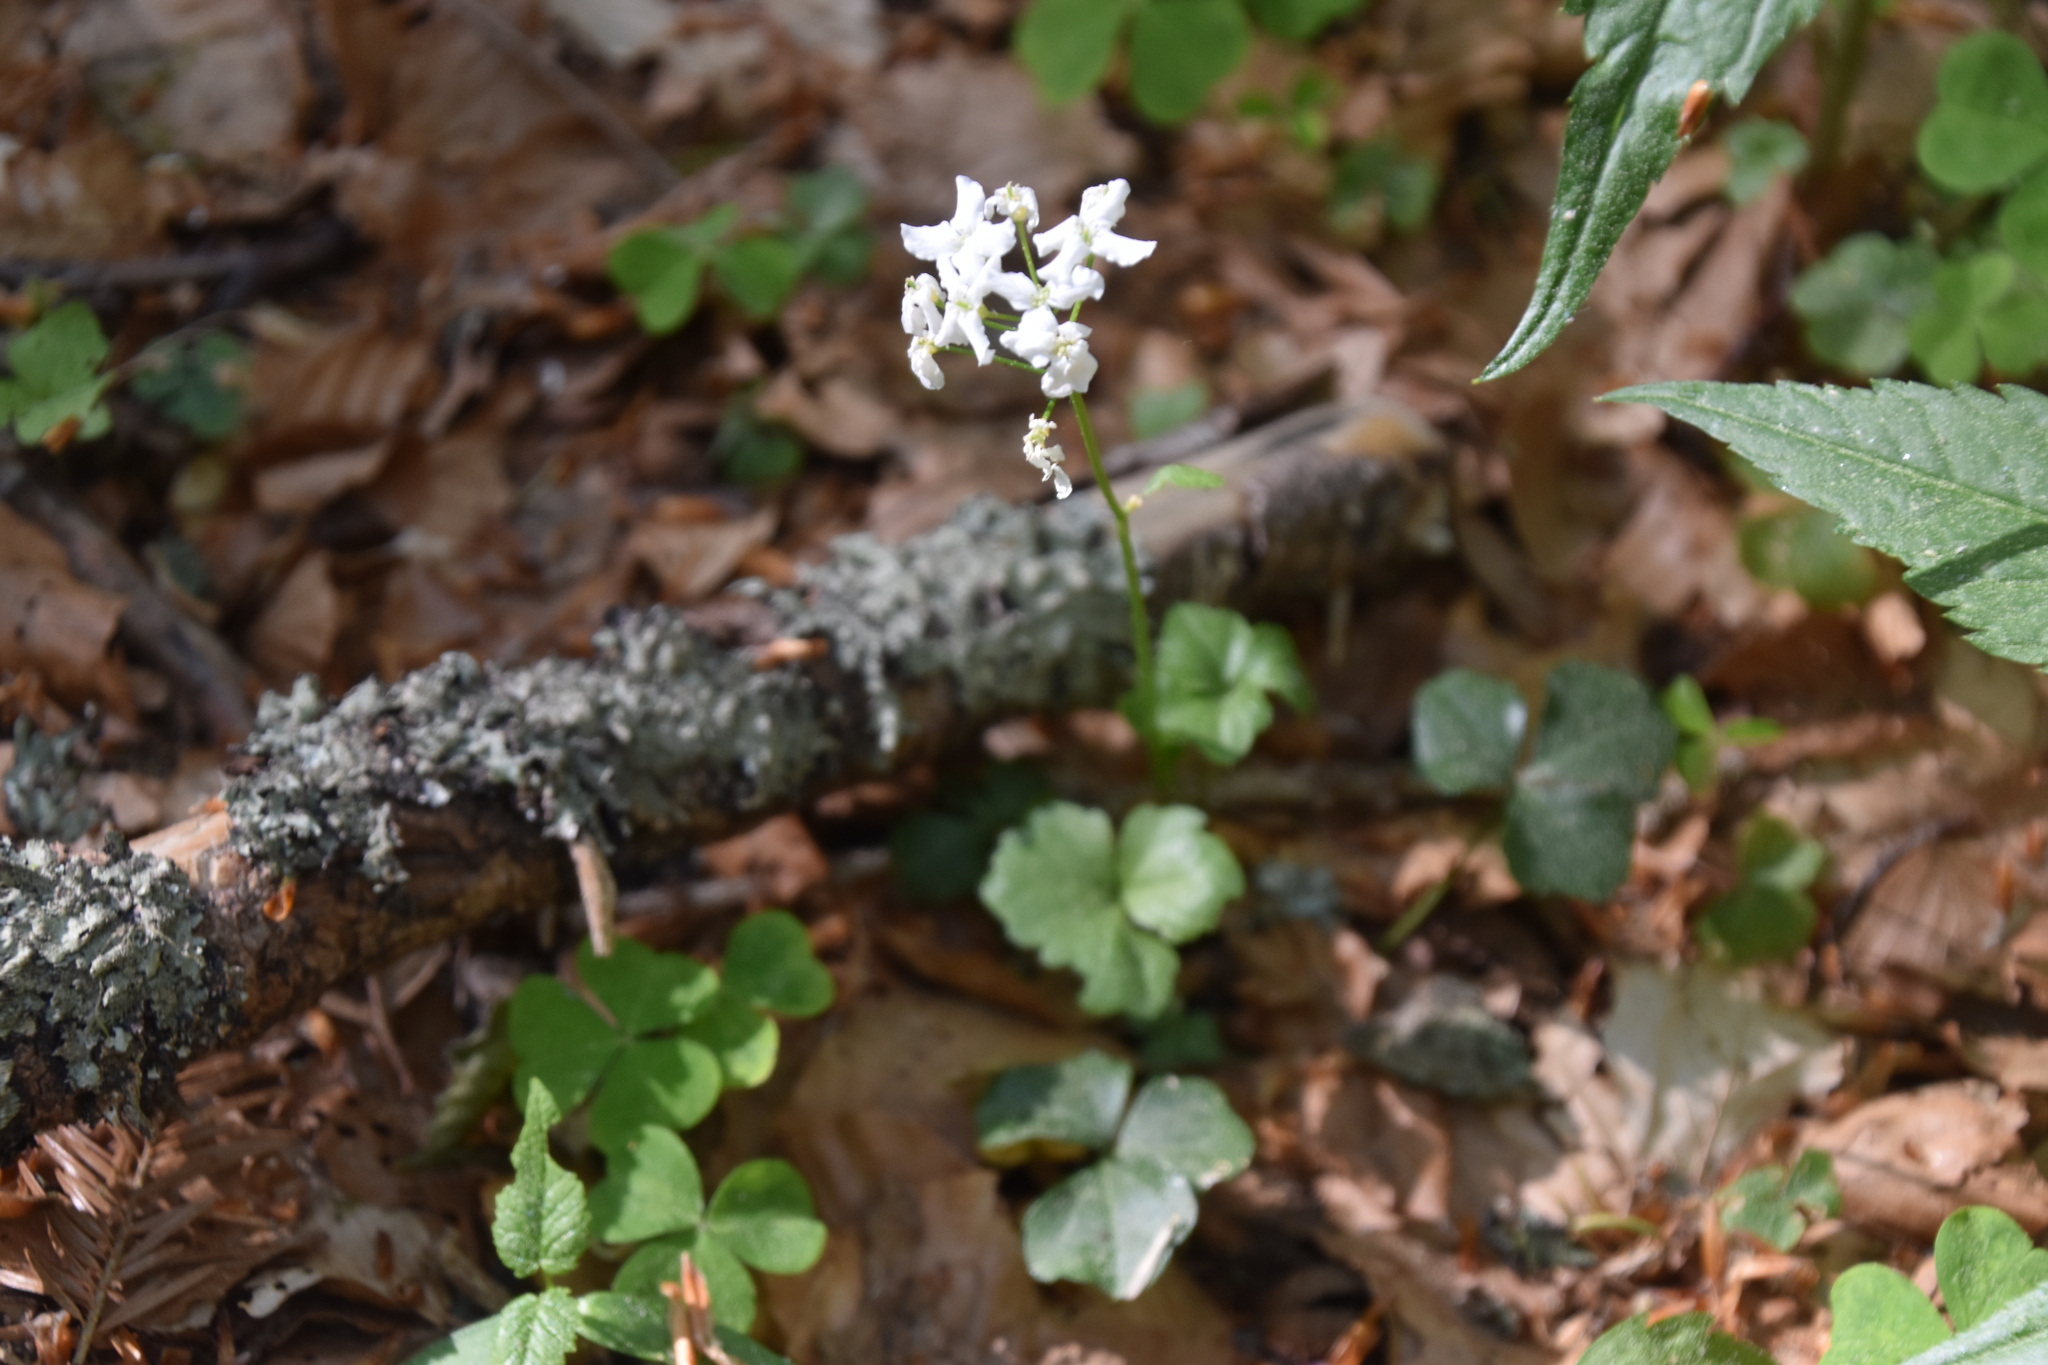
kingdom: Plantae
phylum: Tracheophyta
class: Magnoliopsida
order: Brassicales
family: Brassicaceae
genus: Cardamine
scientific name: Cardamine trifolia
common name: Trefoil cress
